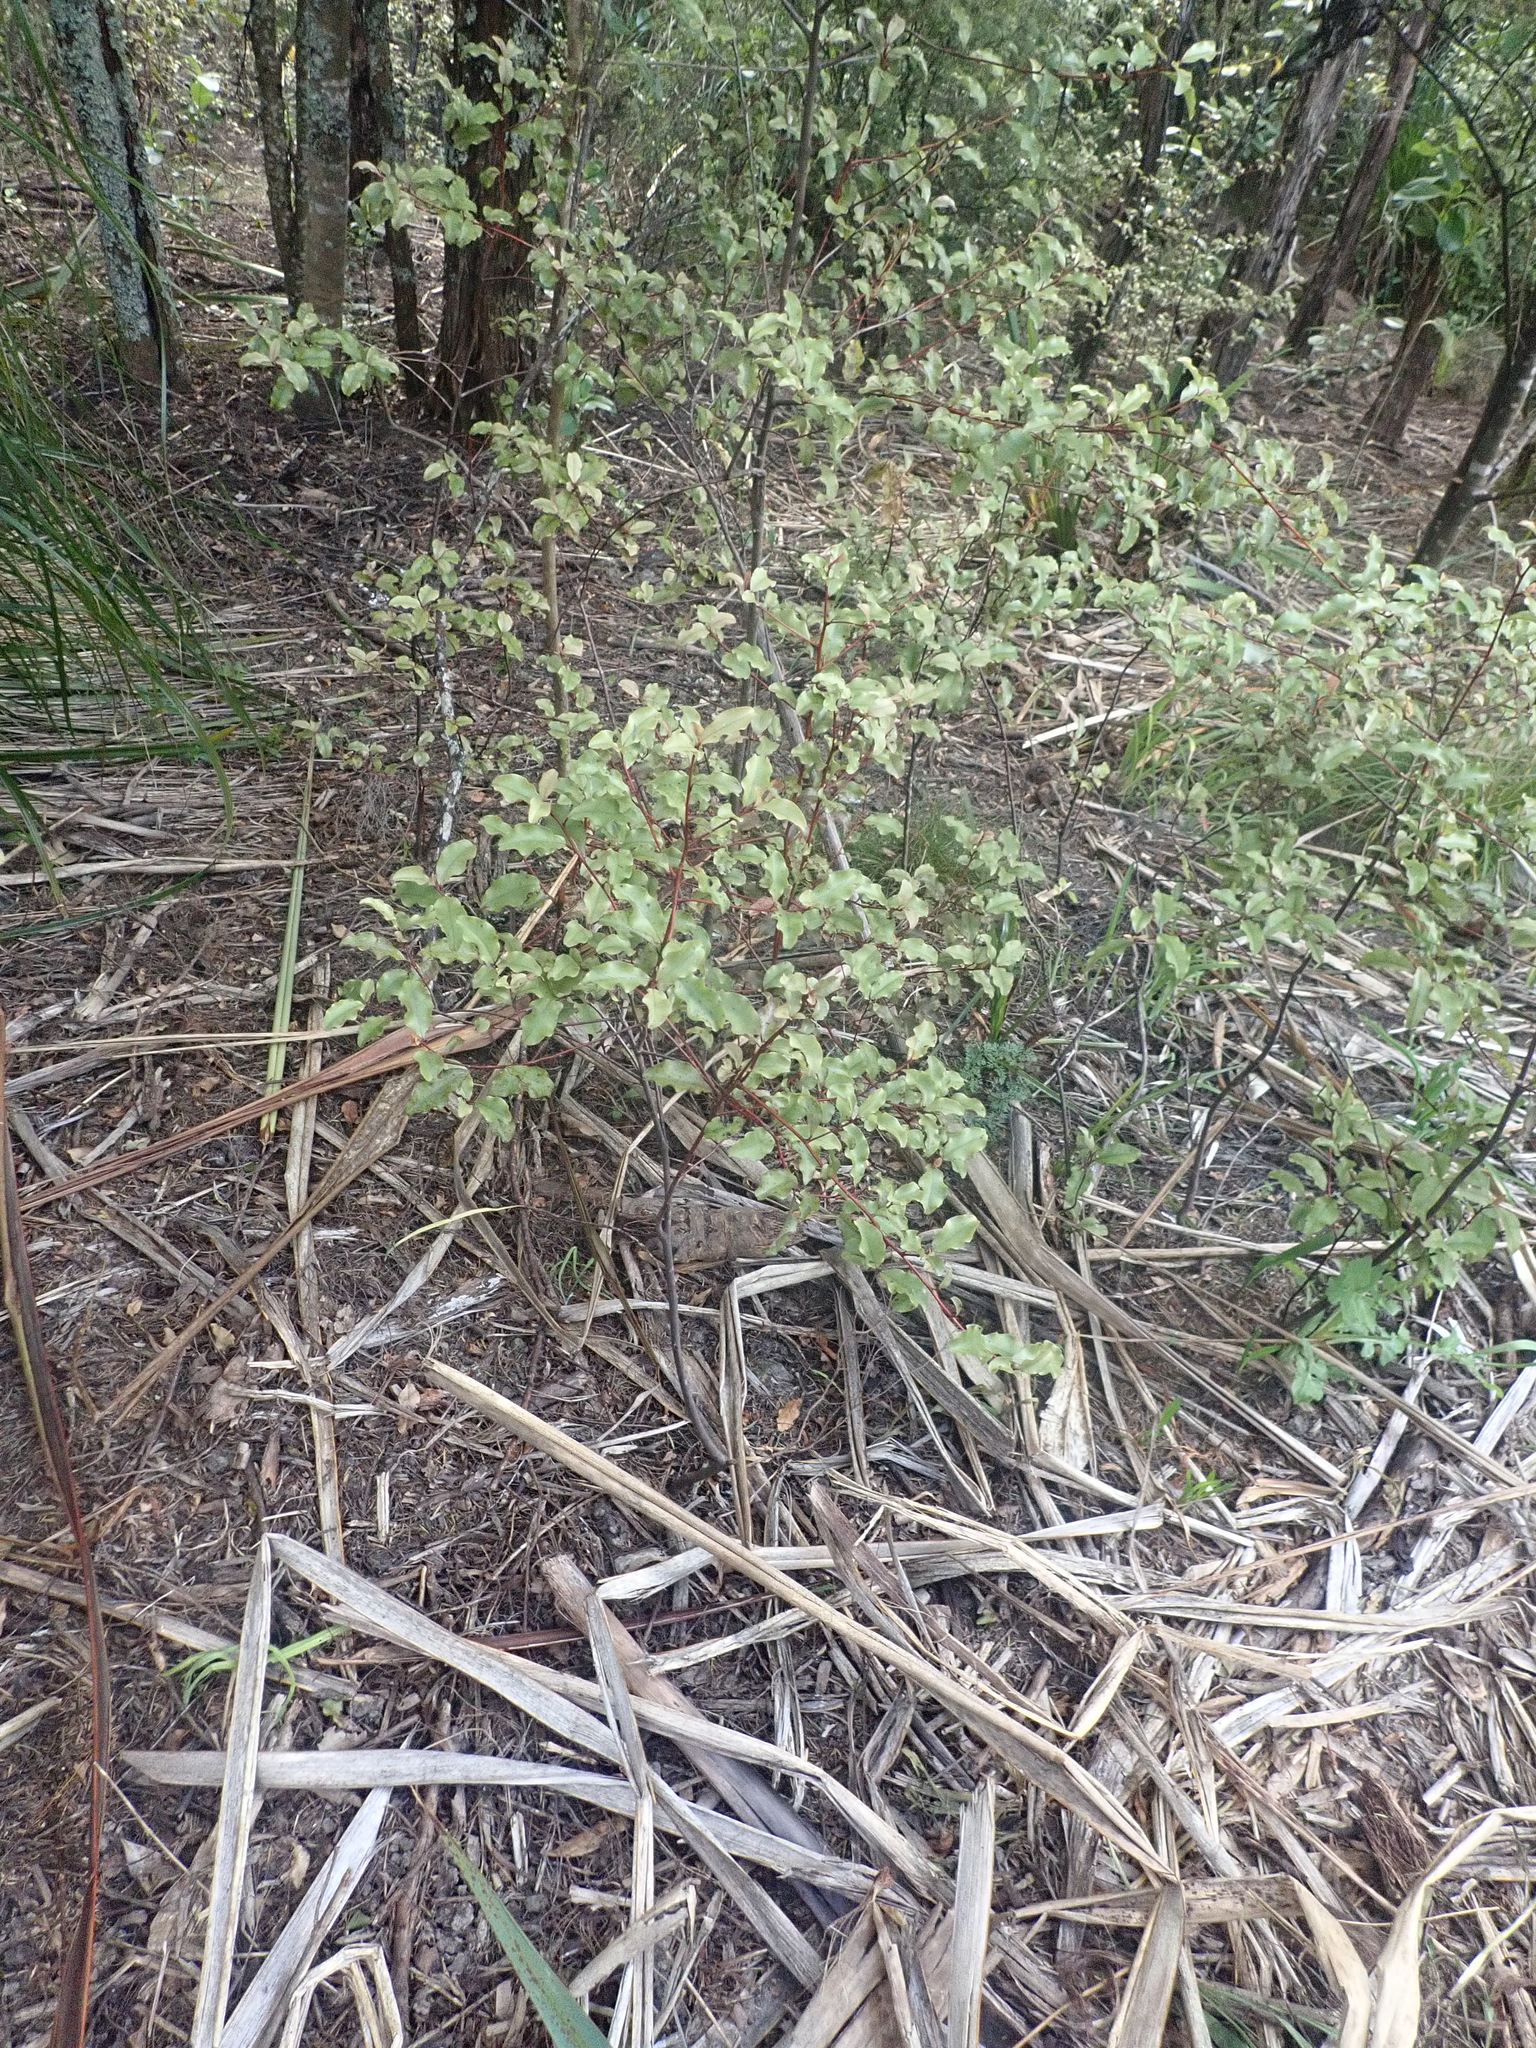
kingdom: Plantae
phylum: Tracheophyta
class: Magnoliopsida
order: Ericales
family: Primulaceae
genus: Myrsine
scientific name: Myrsine australis
